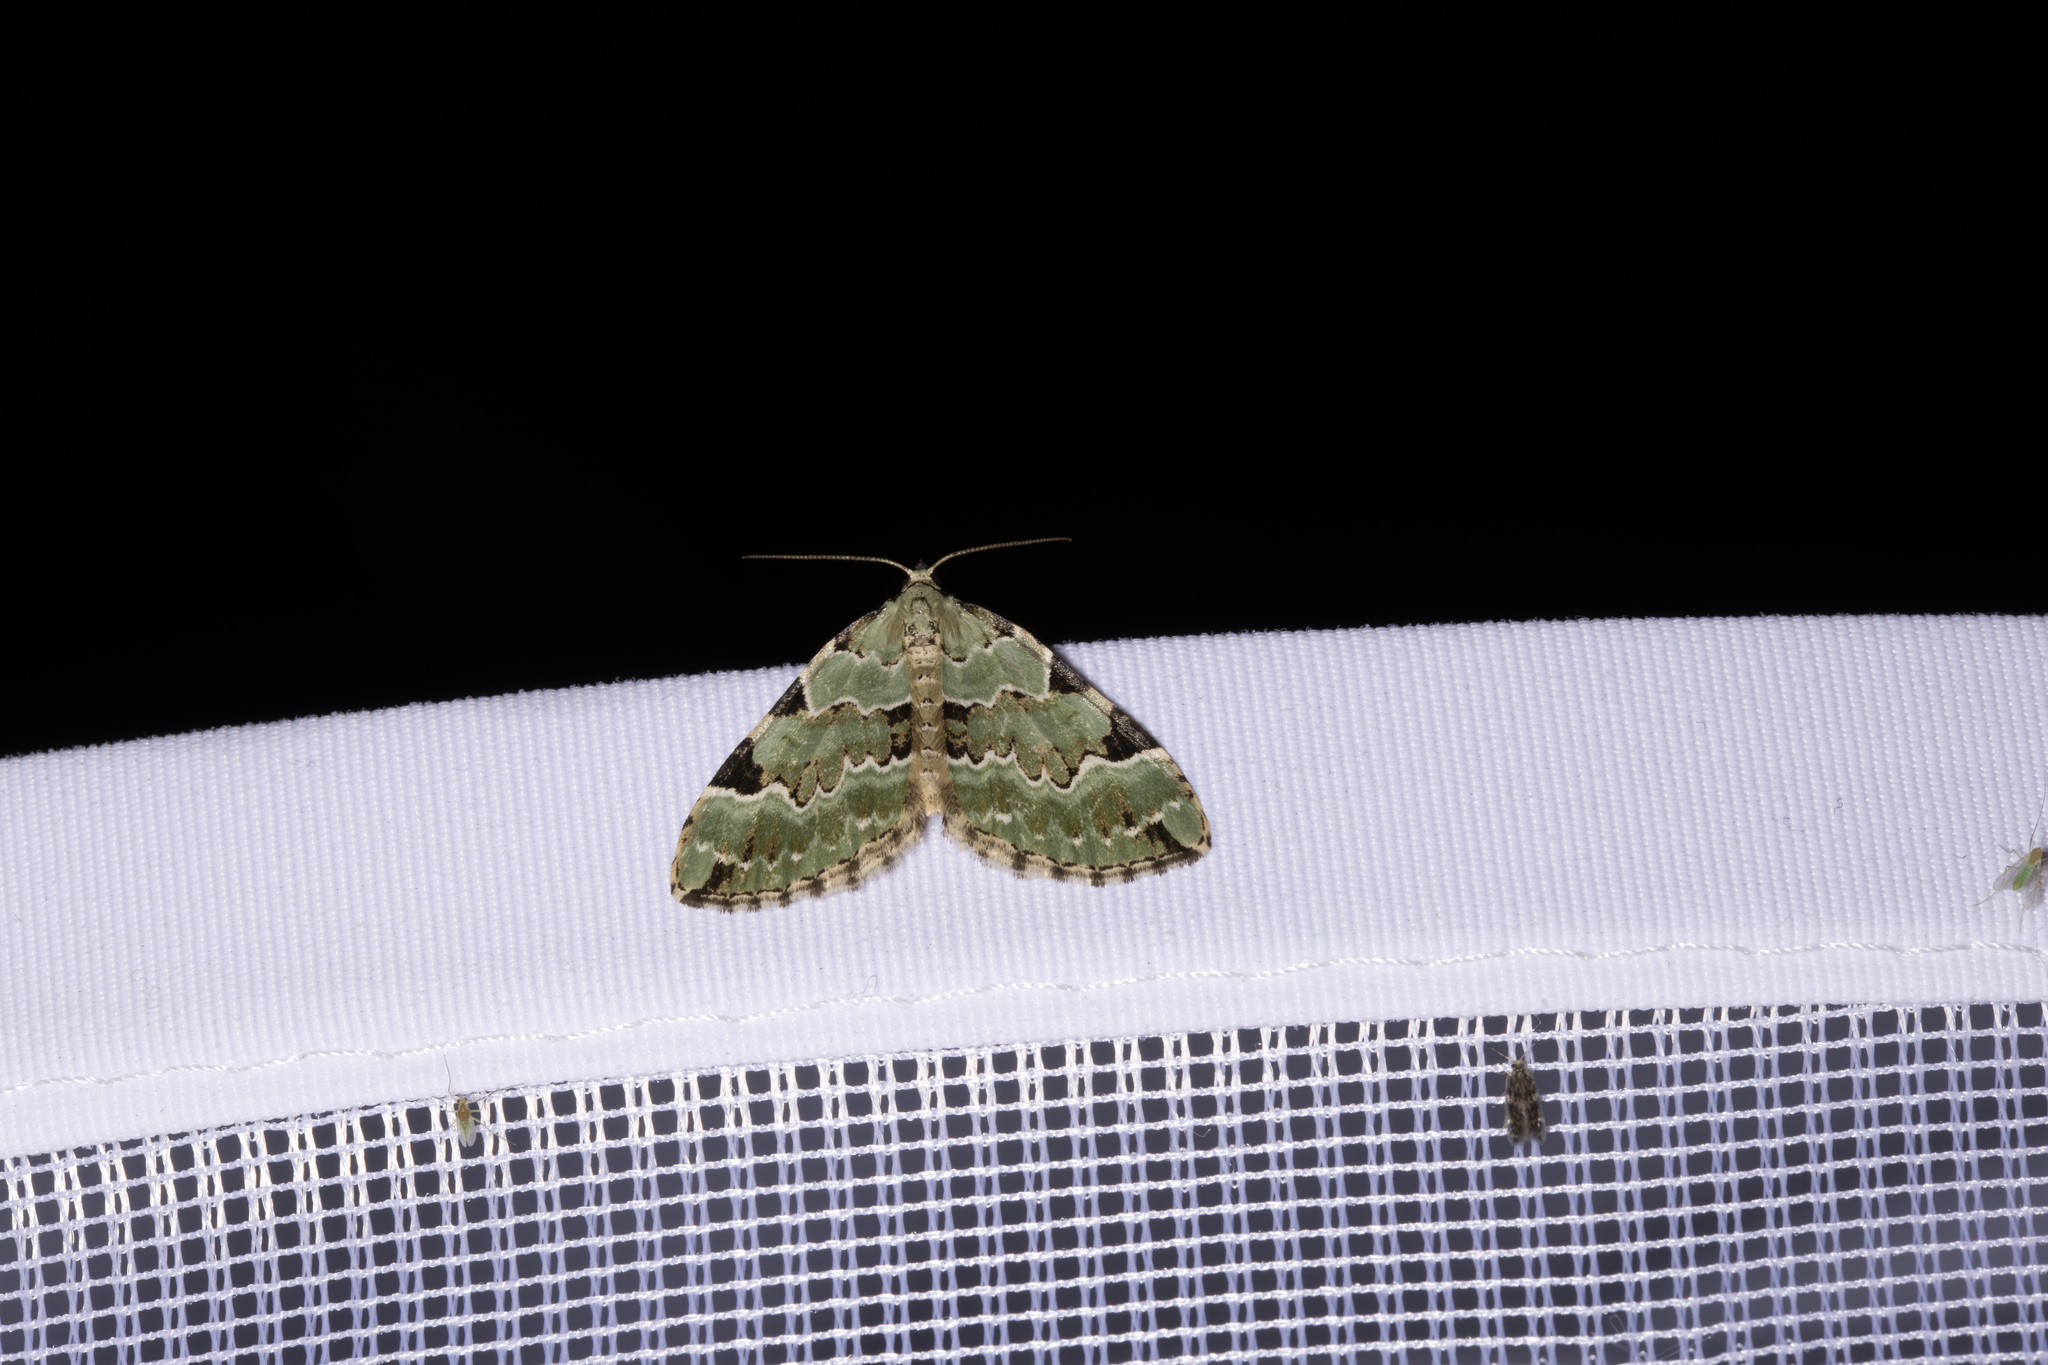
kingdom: Animalia
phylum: Arthropoda
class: Insecta
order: Lepidoptera
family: Geometridae
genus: Colostygia
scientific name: Colostygia pectinataria
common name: Green carpet
